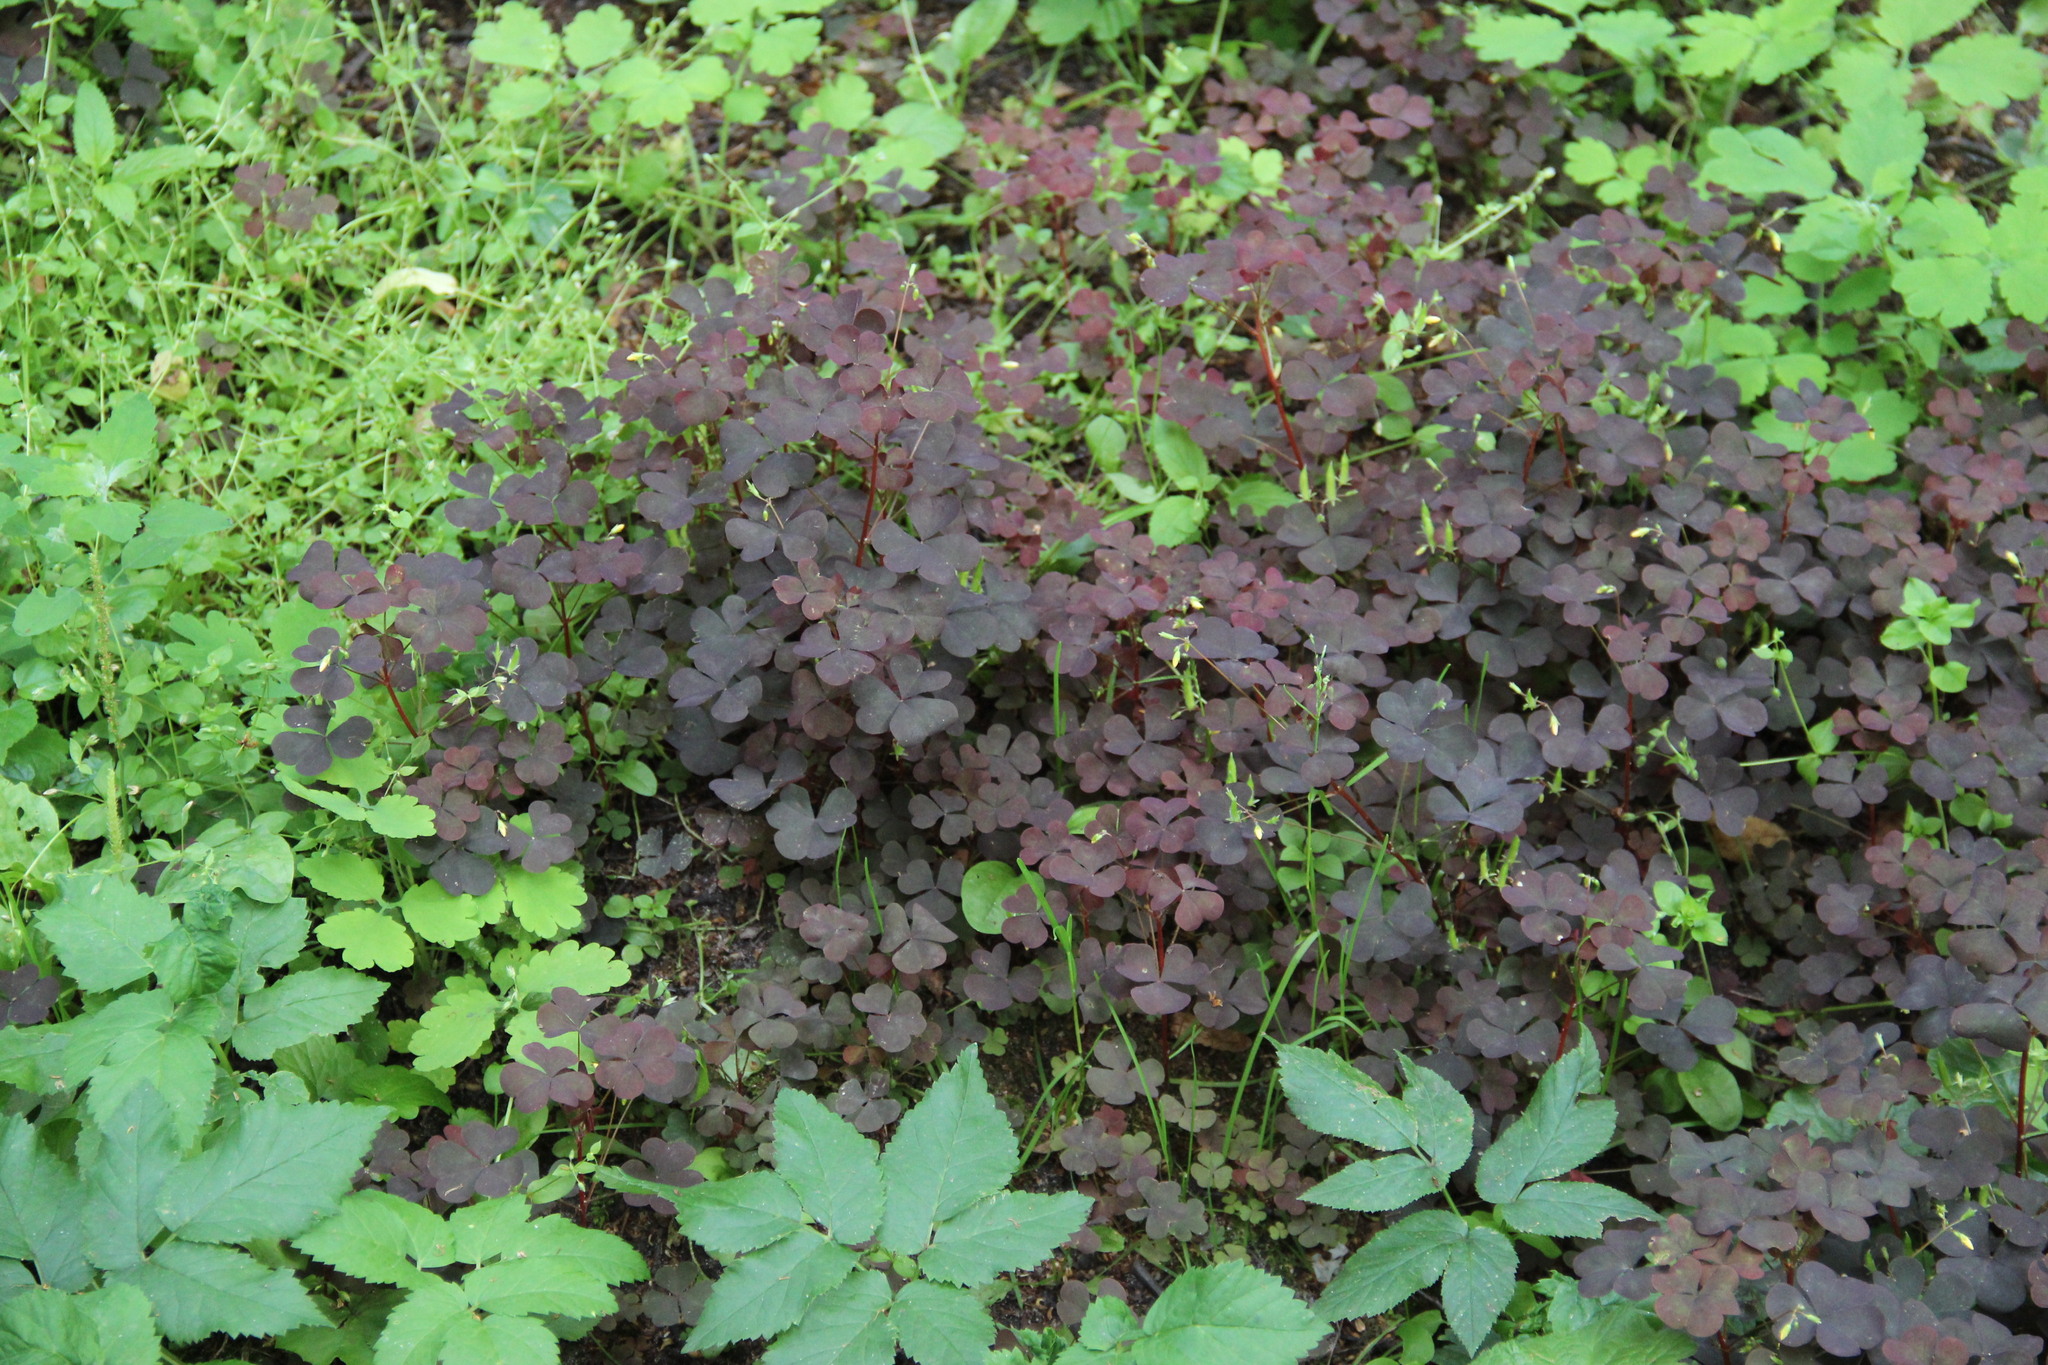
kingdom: Plantae
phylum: Tracheophyta
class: Magnoliopsida
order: Oxalidales
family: Oxalidaceae
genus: Oxalis
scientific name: Oxalis stricta
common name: Upright yellow-sorrel
